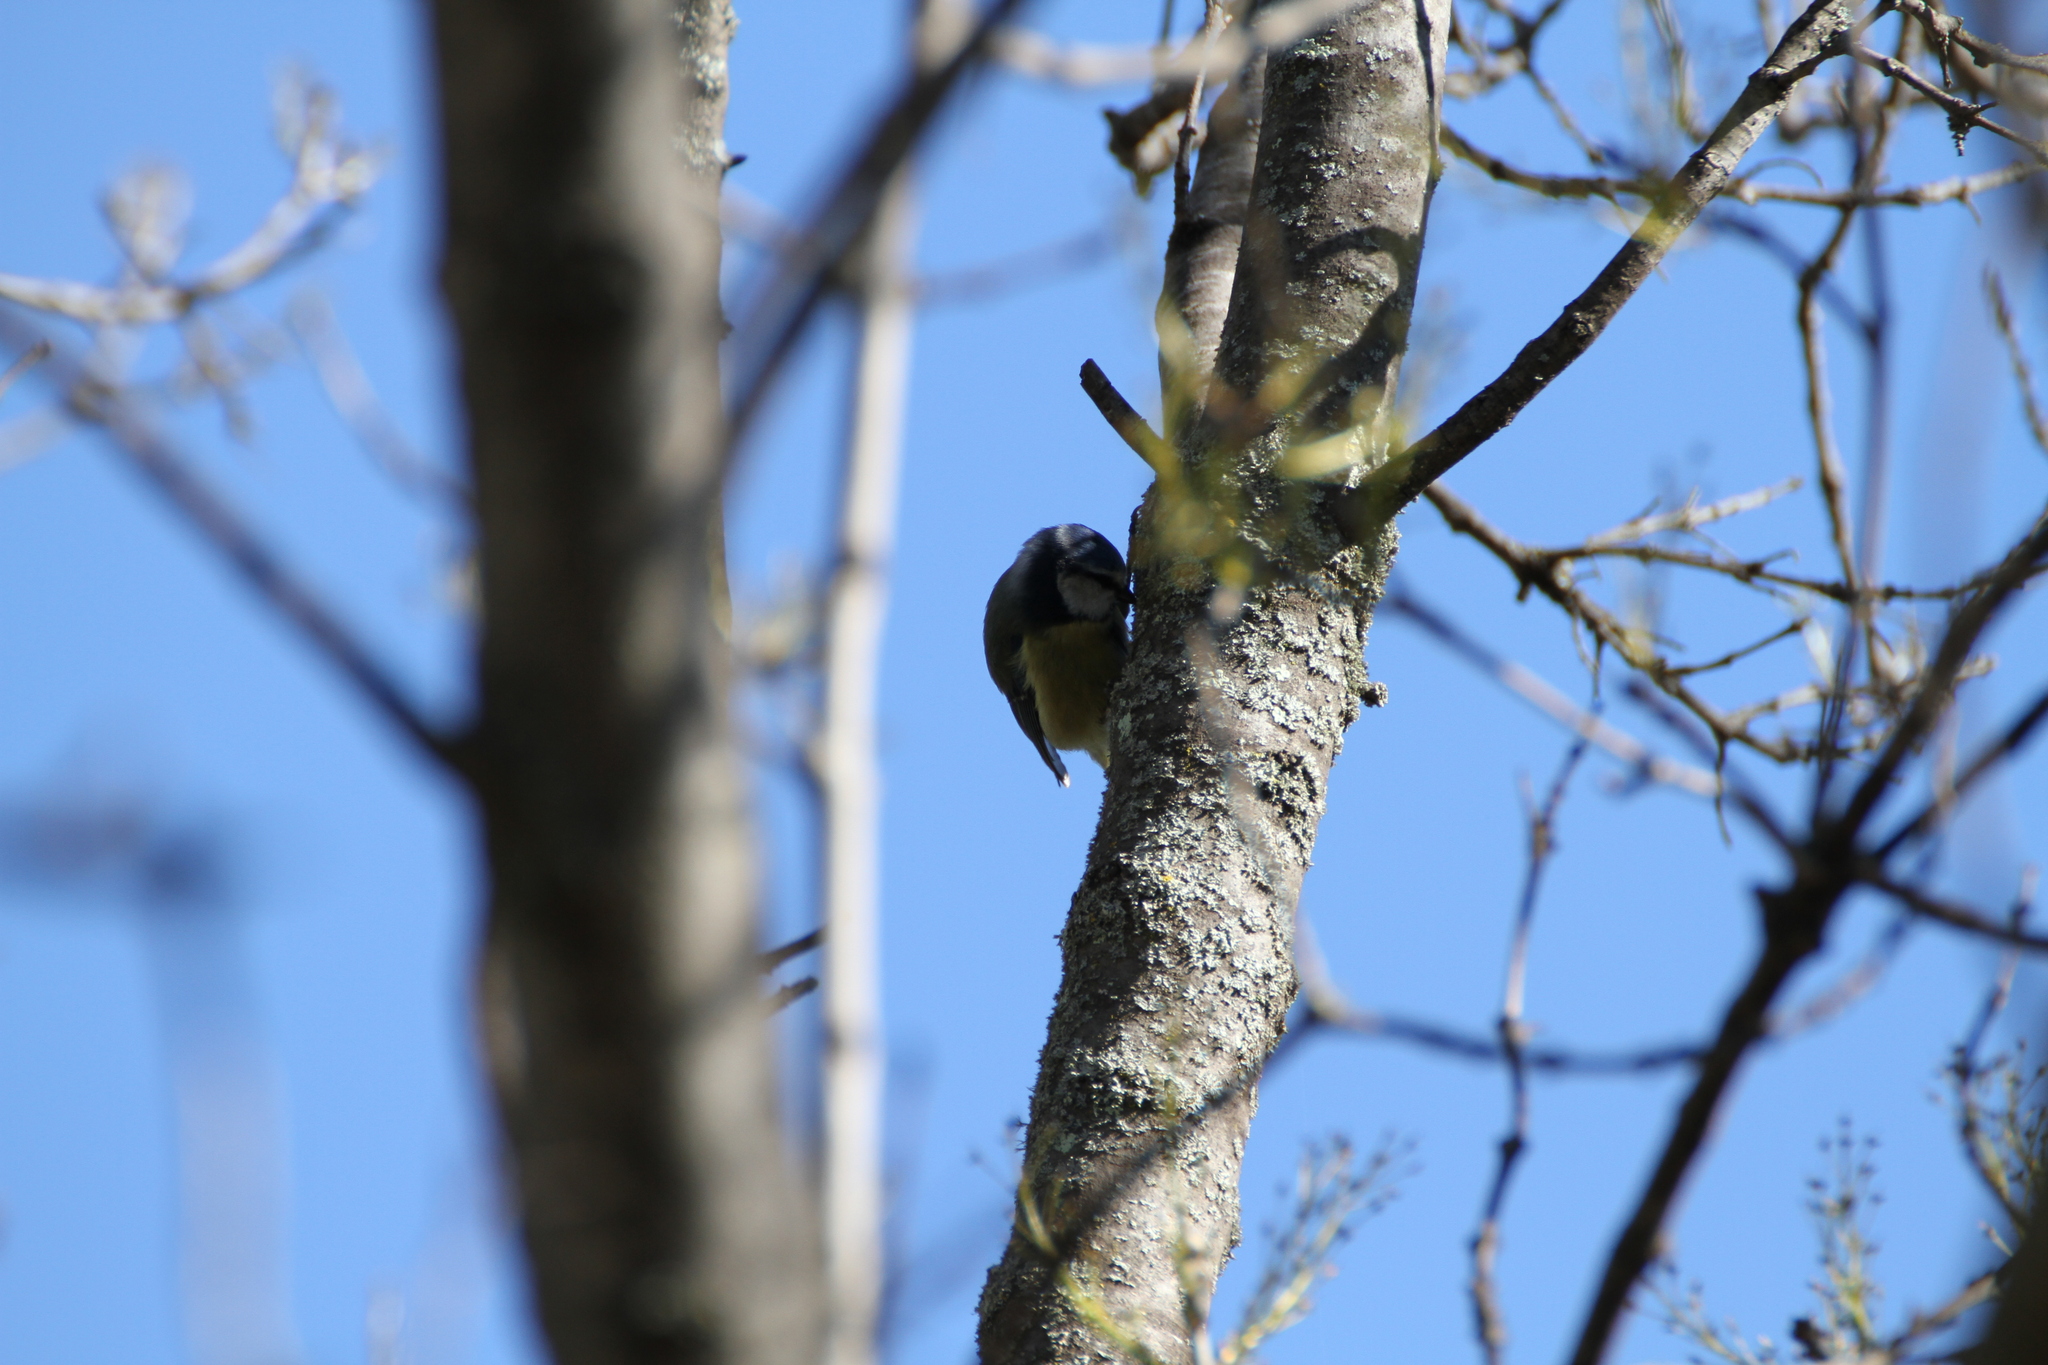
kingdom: Animalia
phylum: Chordata
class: Aves
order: Passeriformes
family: Paridae
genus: Cyanistes
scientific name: Cyanistes caeruleus
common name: Eurasian blue tit
